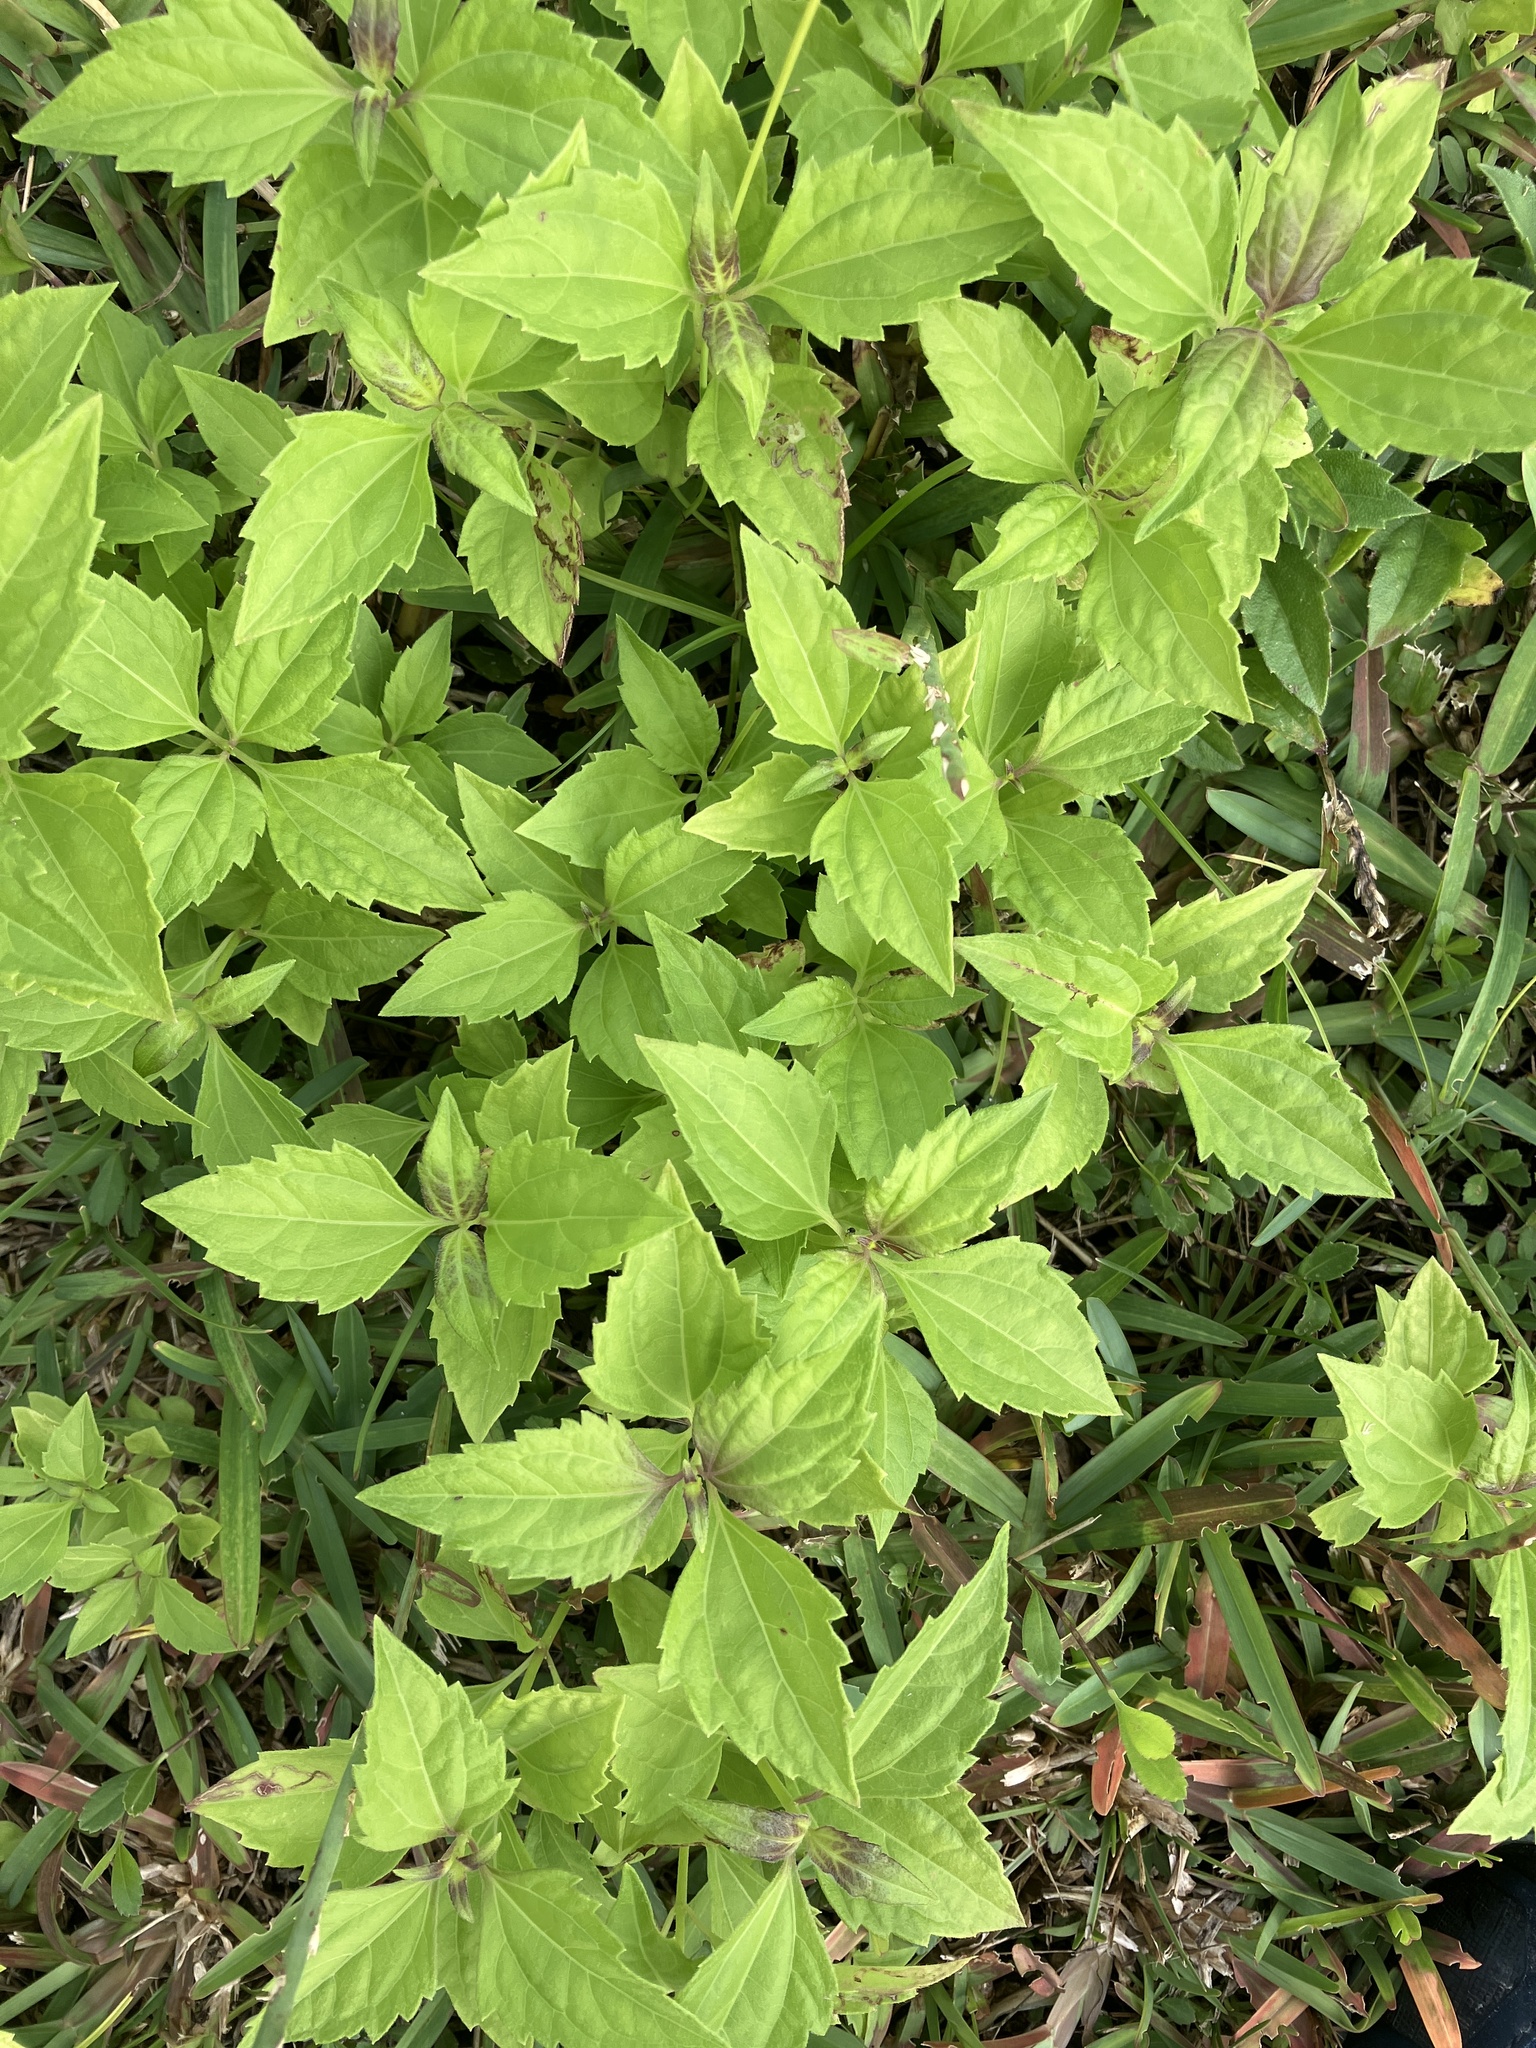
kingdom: Plantae
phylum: Tracheophyta
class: Magnoliopsida
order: Asterales
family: Asteraceae
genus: Chromolaena
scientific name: Chromolaena odorata
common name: Siamweed
